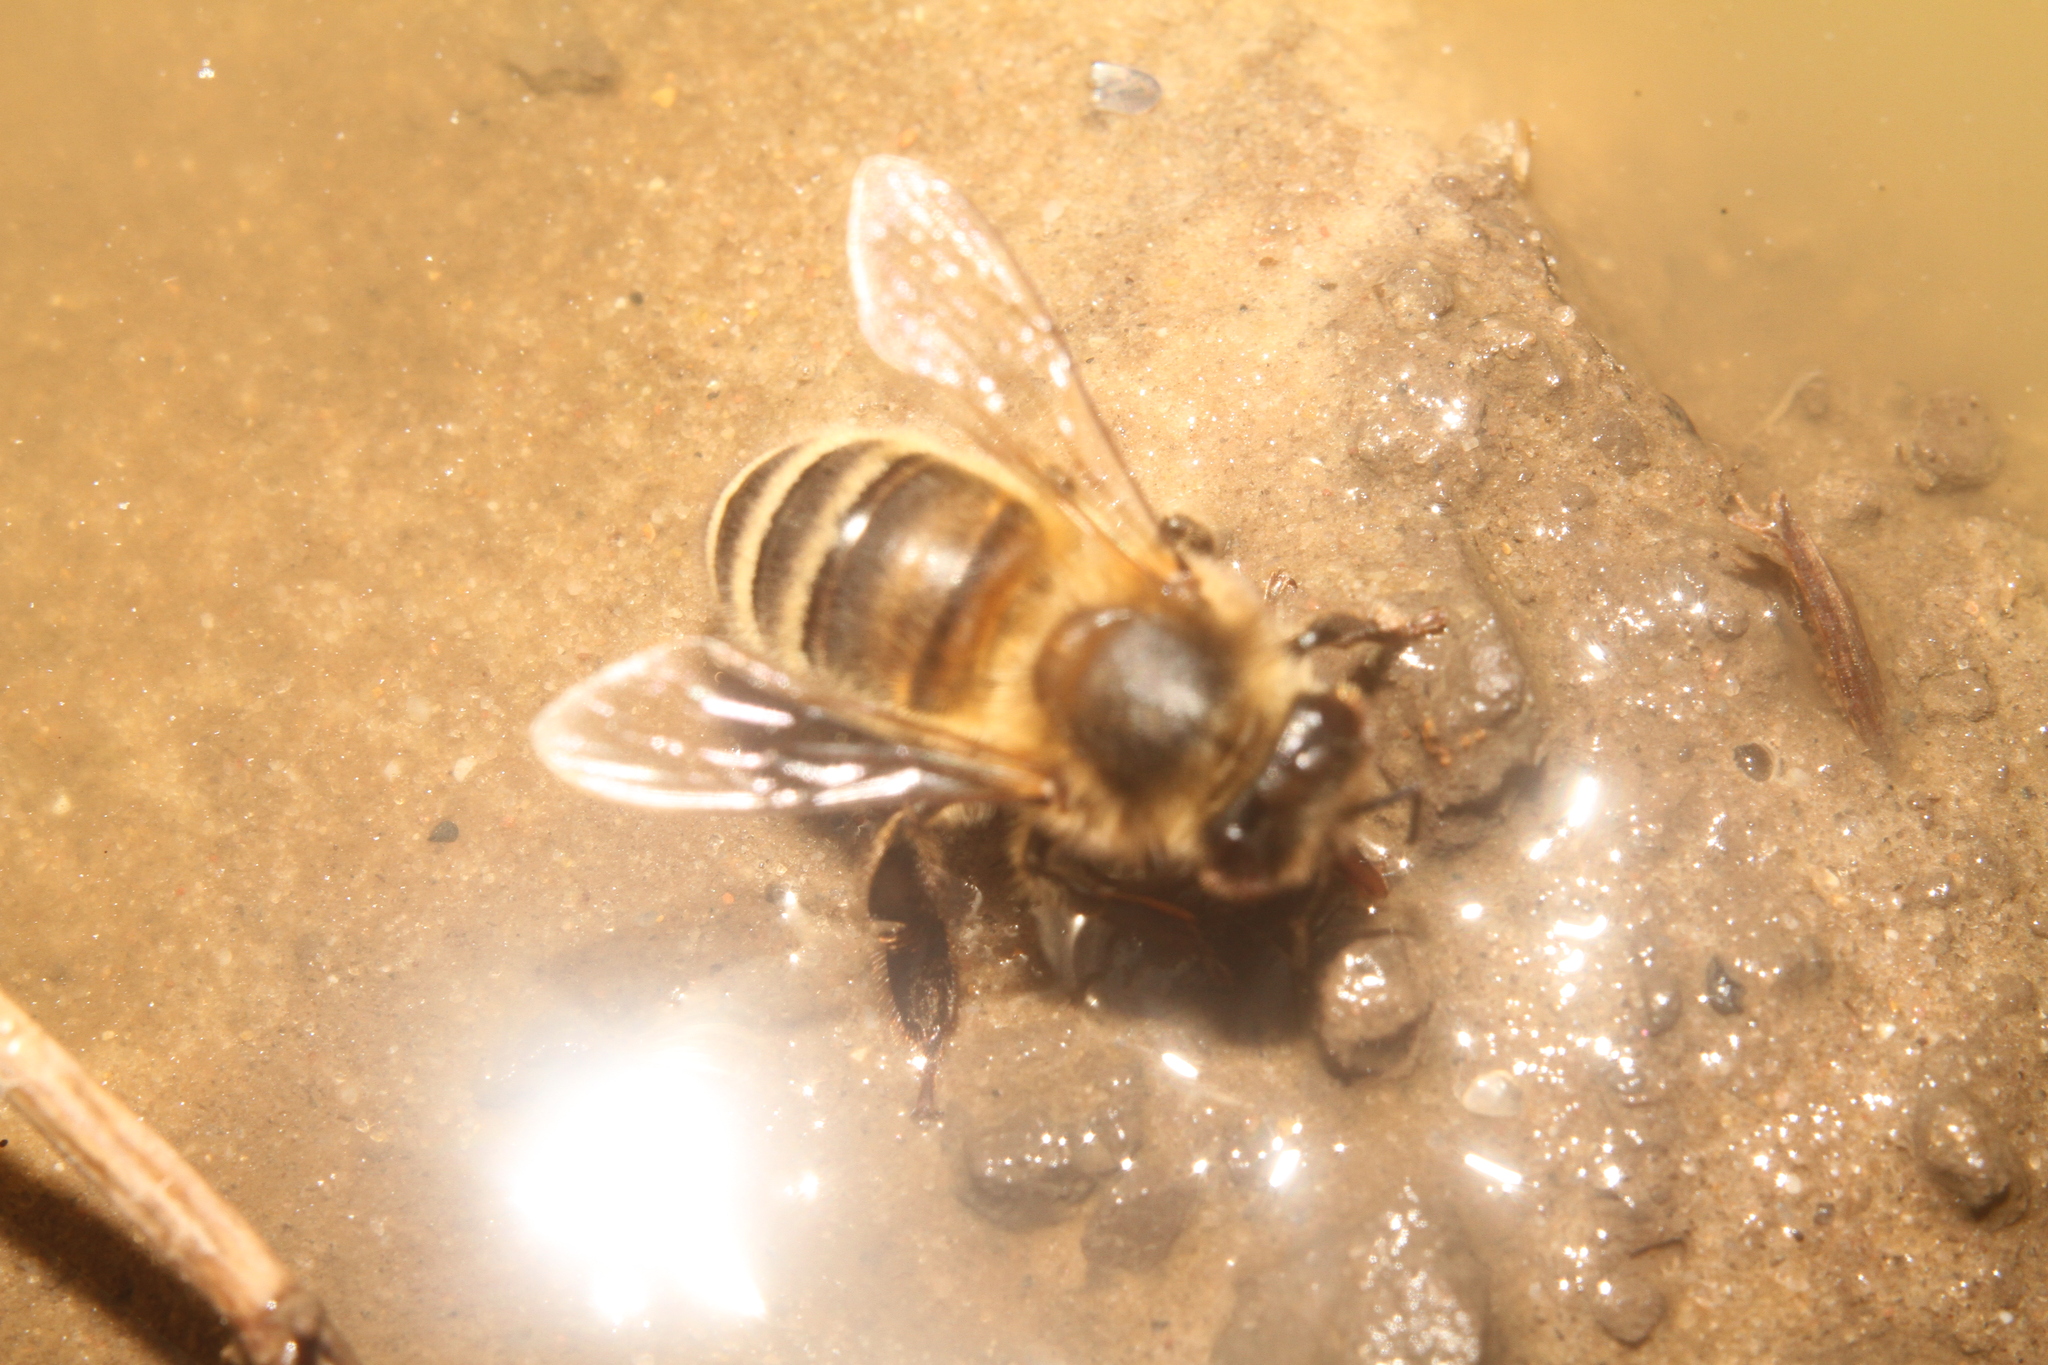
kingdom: Animalia
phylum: Arthropoda
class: Insecta
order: Hymenoptera
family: Apidae
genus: Apis
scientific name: Apis mellifera
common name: Honey bee
